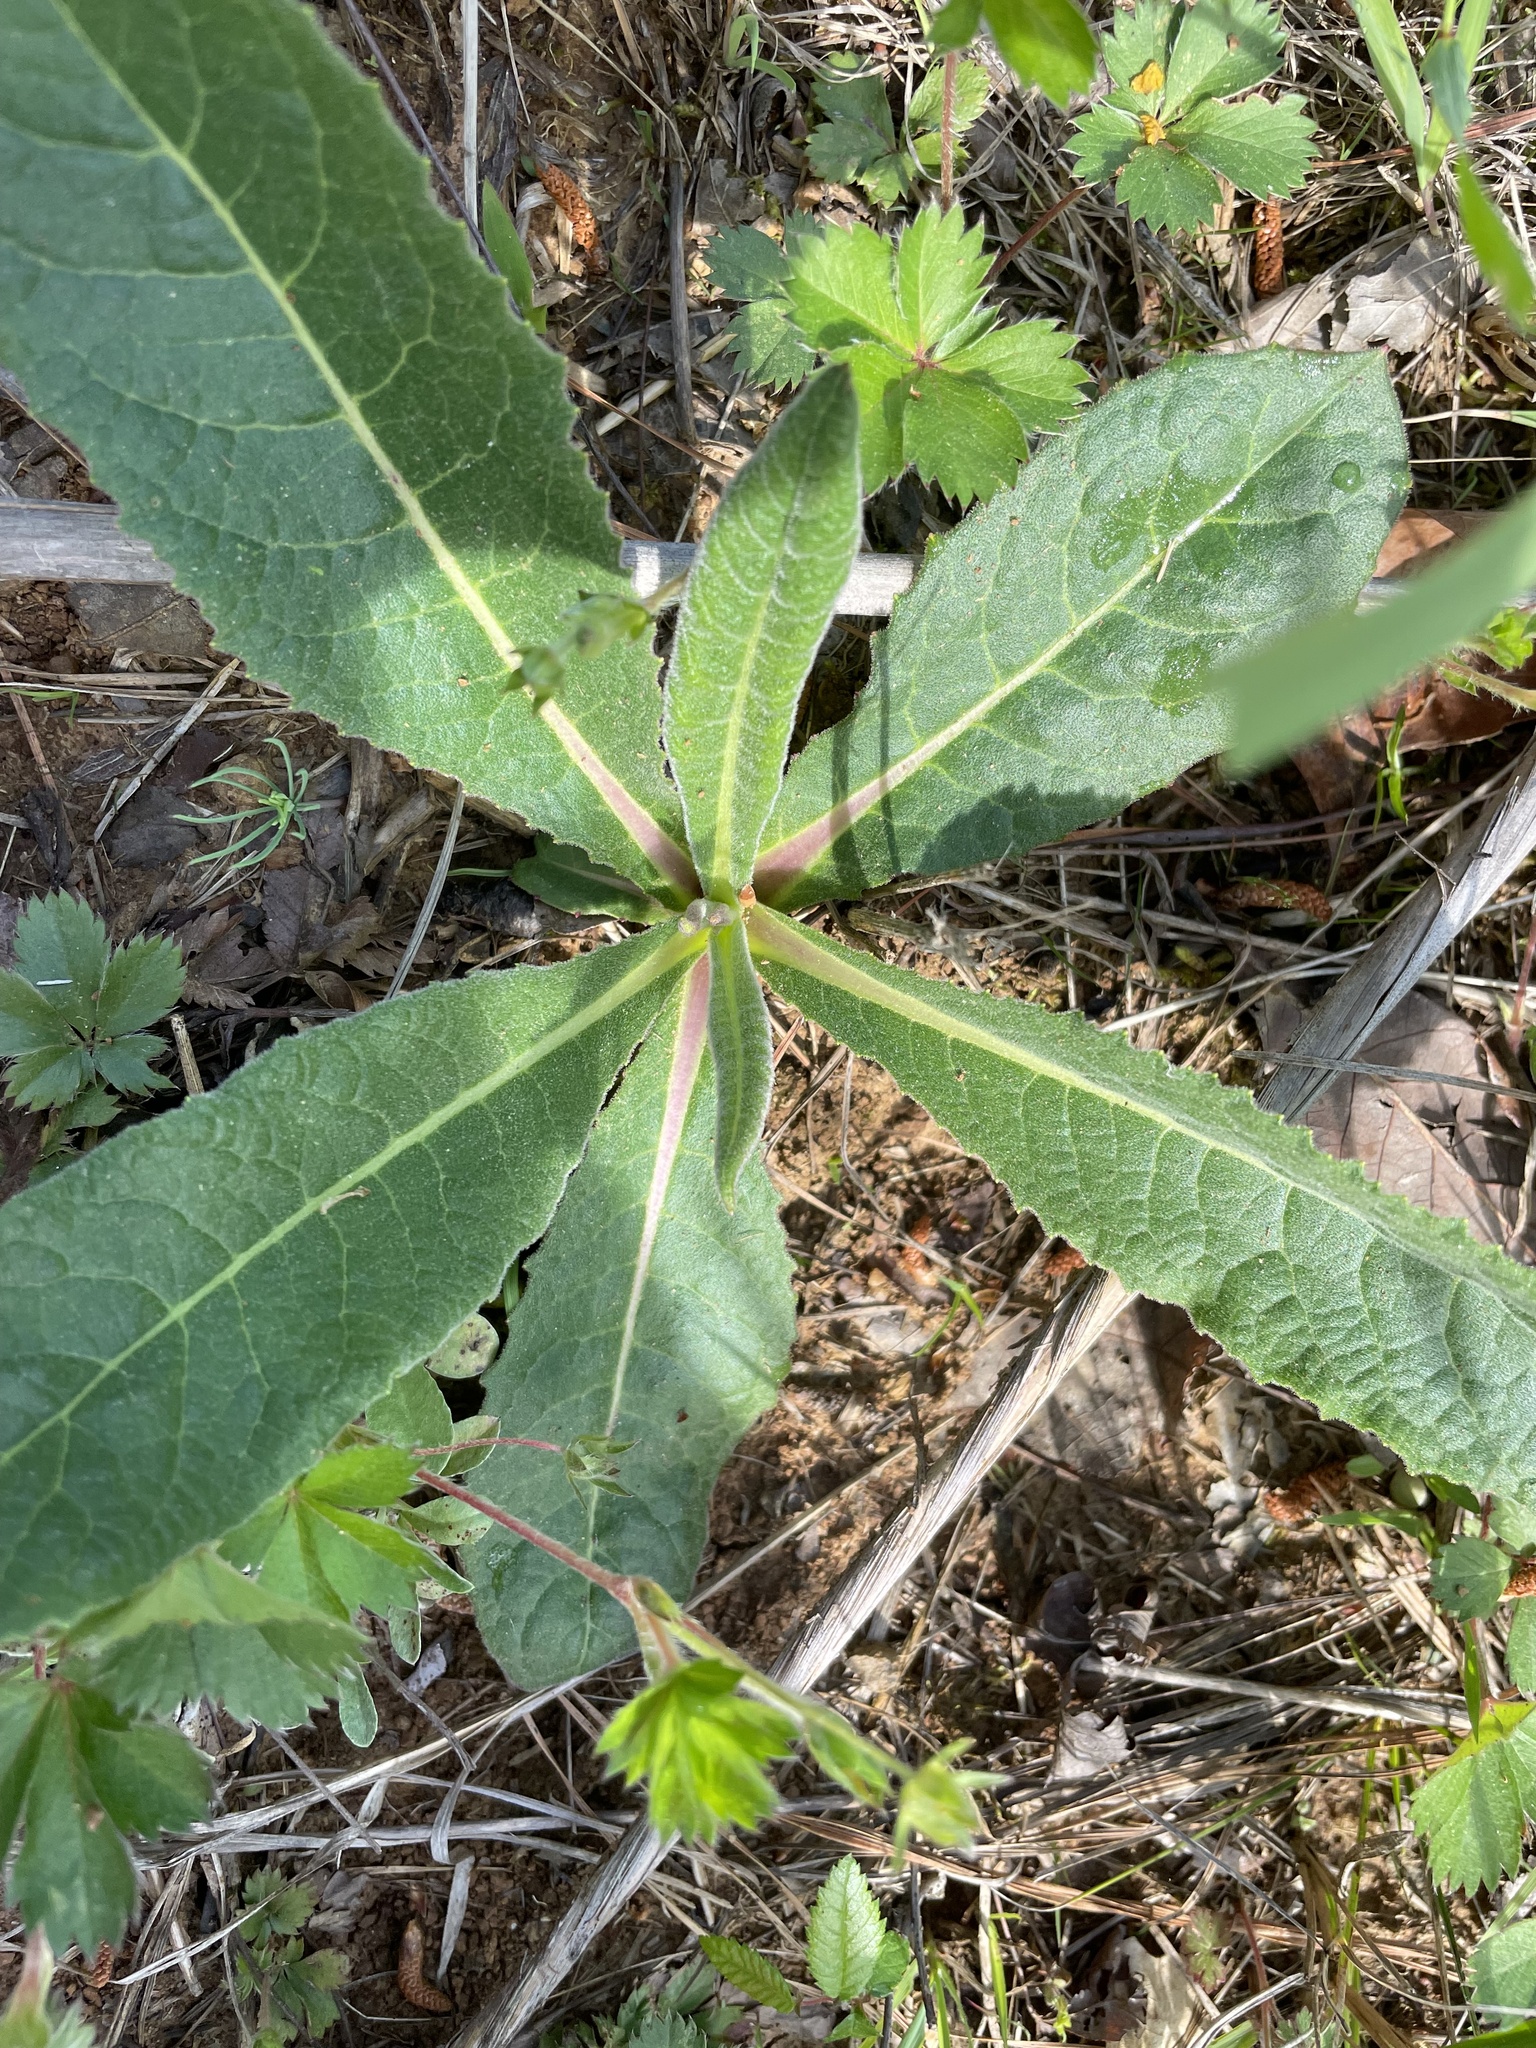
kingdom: Plantae
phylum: Tracheophyta
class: Magnoliopsida
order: Asterales
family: Asteraceae
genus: Vernonia
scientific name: Vernonia acaulis
